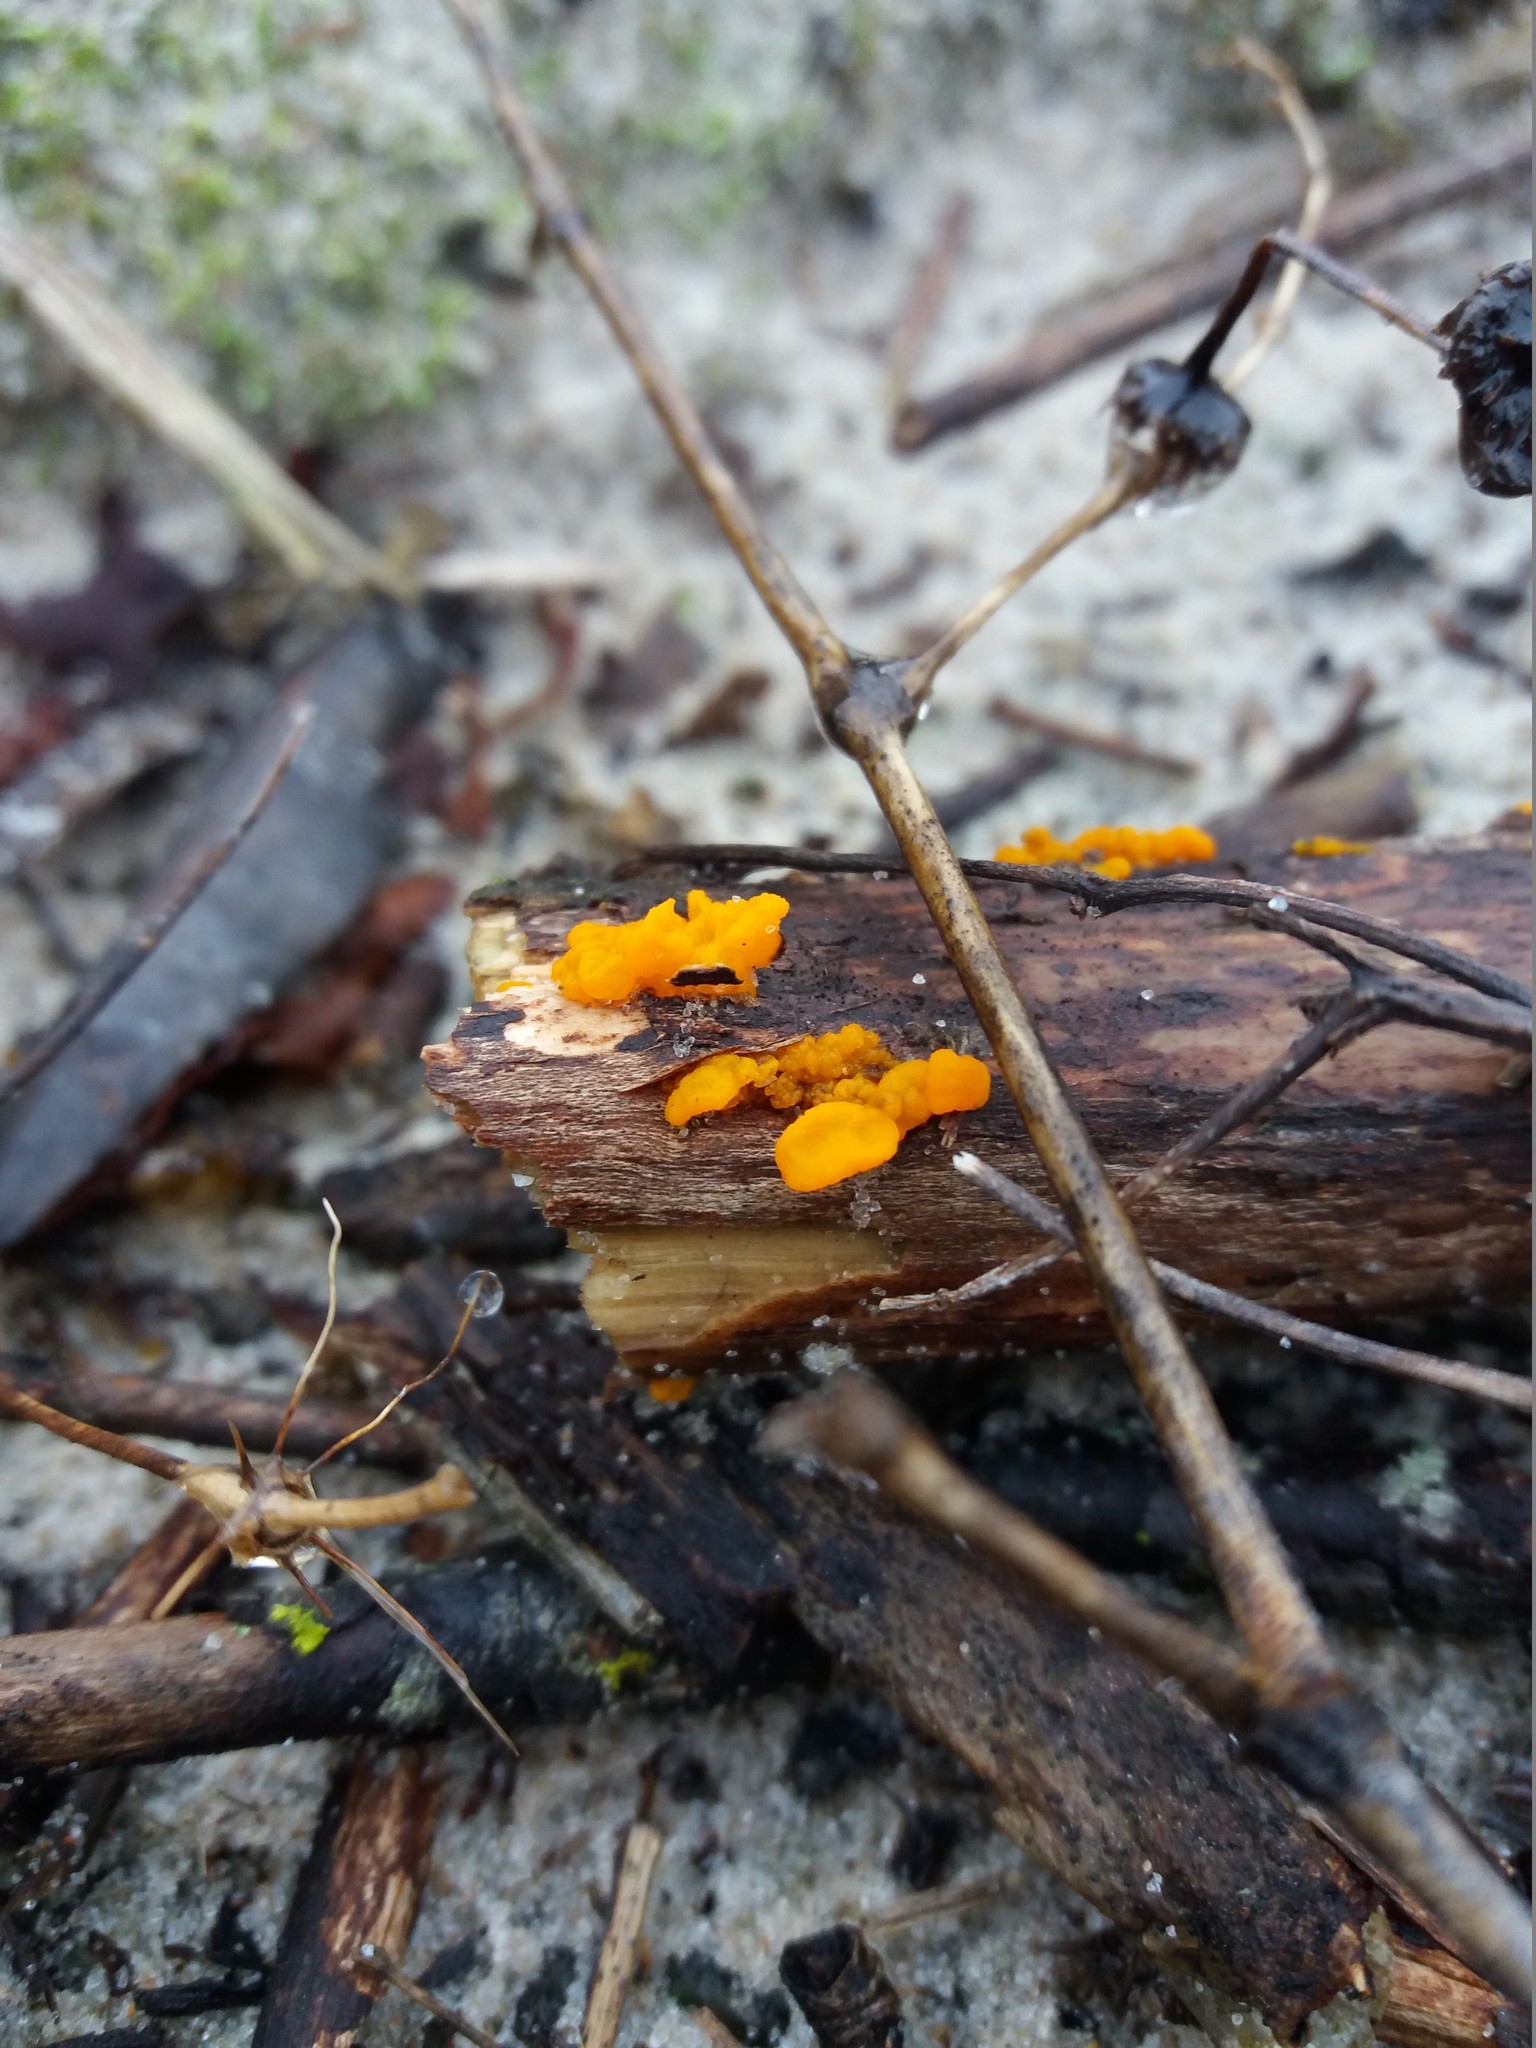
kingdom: Fungi
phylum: Basidiomycota
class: Tremellomycetes
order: Tremellales
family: Tremellaceae
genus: Tremella
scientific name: Tremella mesenterica
